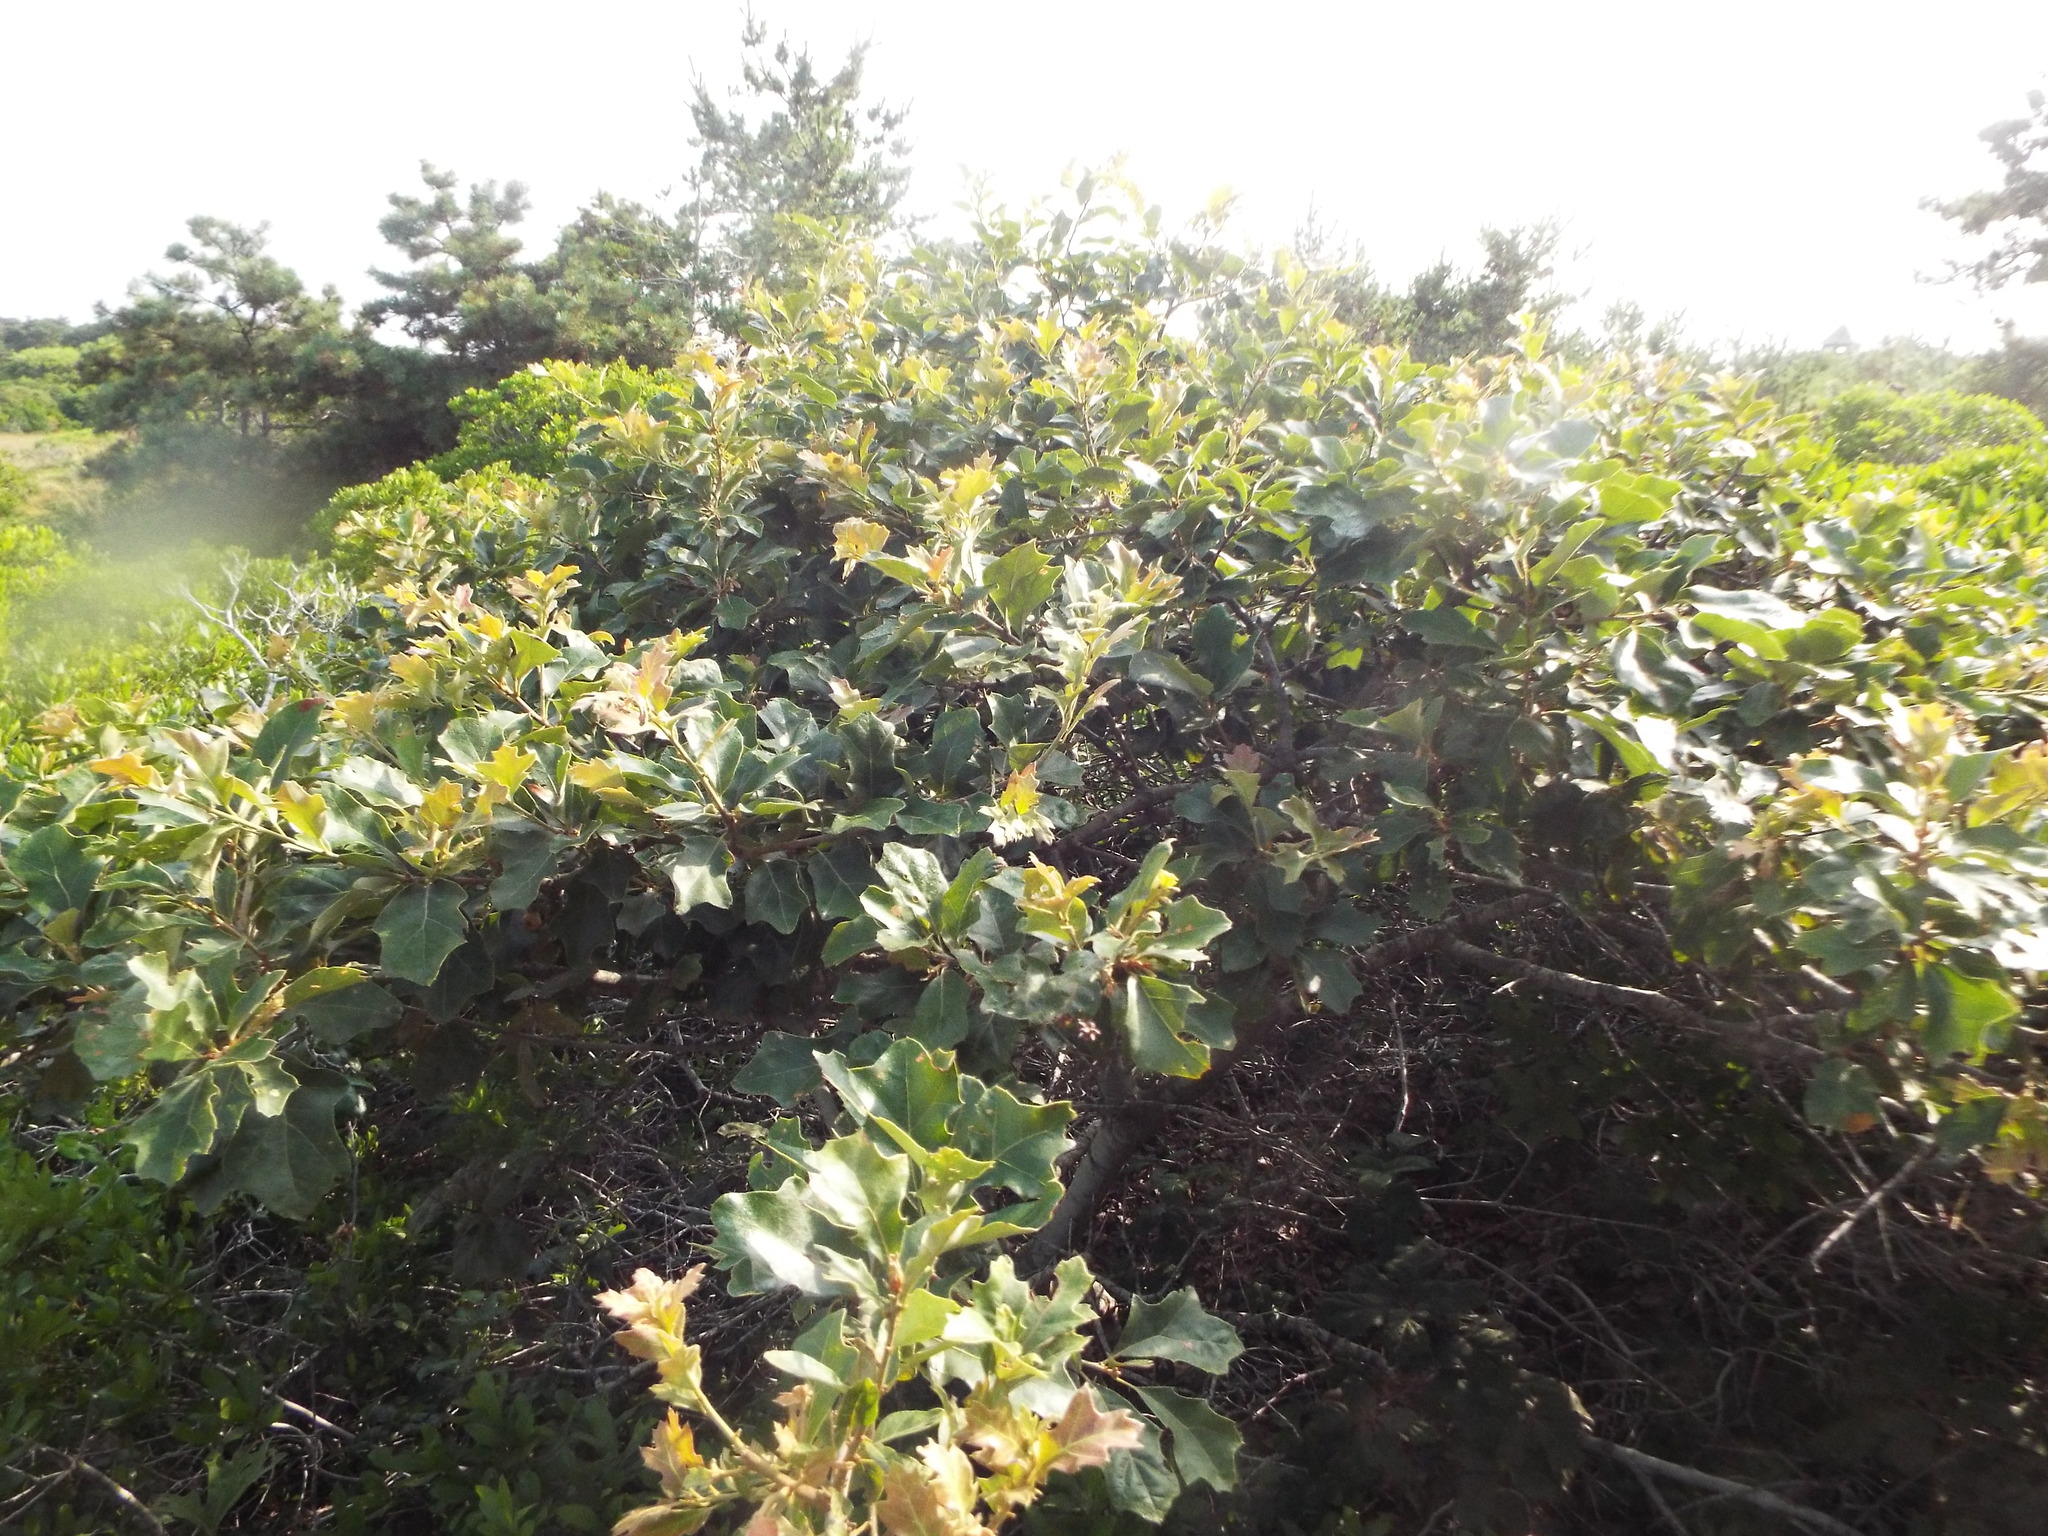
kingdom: Plantae
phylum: Tracheophyta
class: Magnoliopsida
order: Fagales
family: Fagaceae
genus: Quercus
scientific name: Quercus ilicifolia
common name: Bear oak
